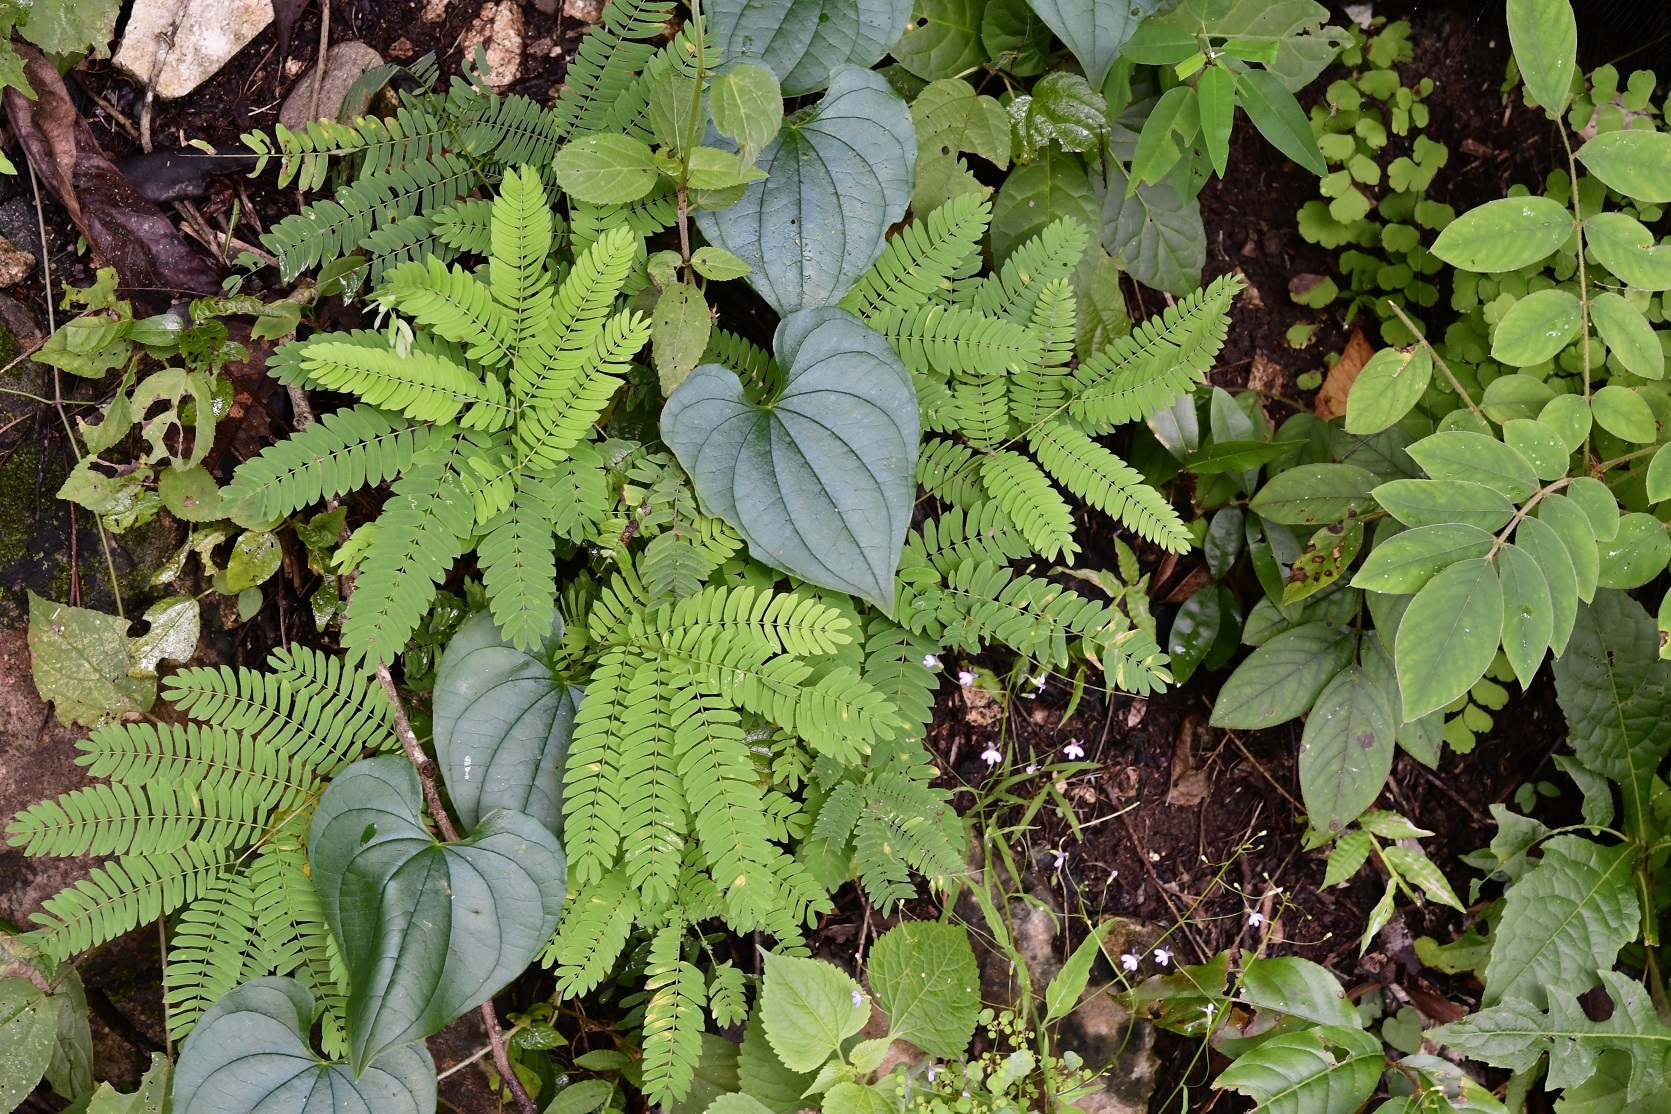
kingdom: Plantae
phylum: Tracheophyta
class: Liliopsida
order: Dioscoreales
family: Dioscoreaceae
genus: Dioscorea
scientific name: Dioscorea carpomaculata
